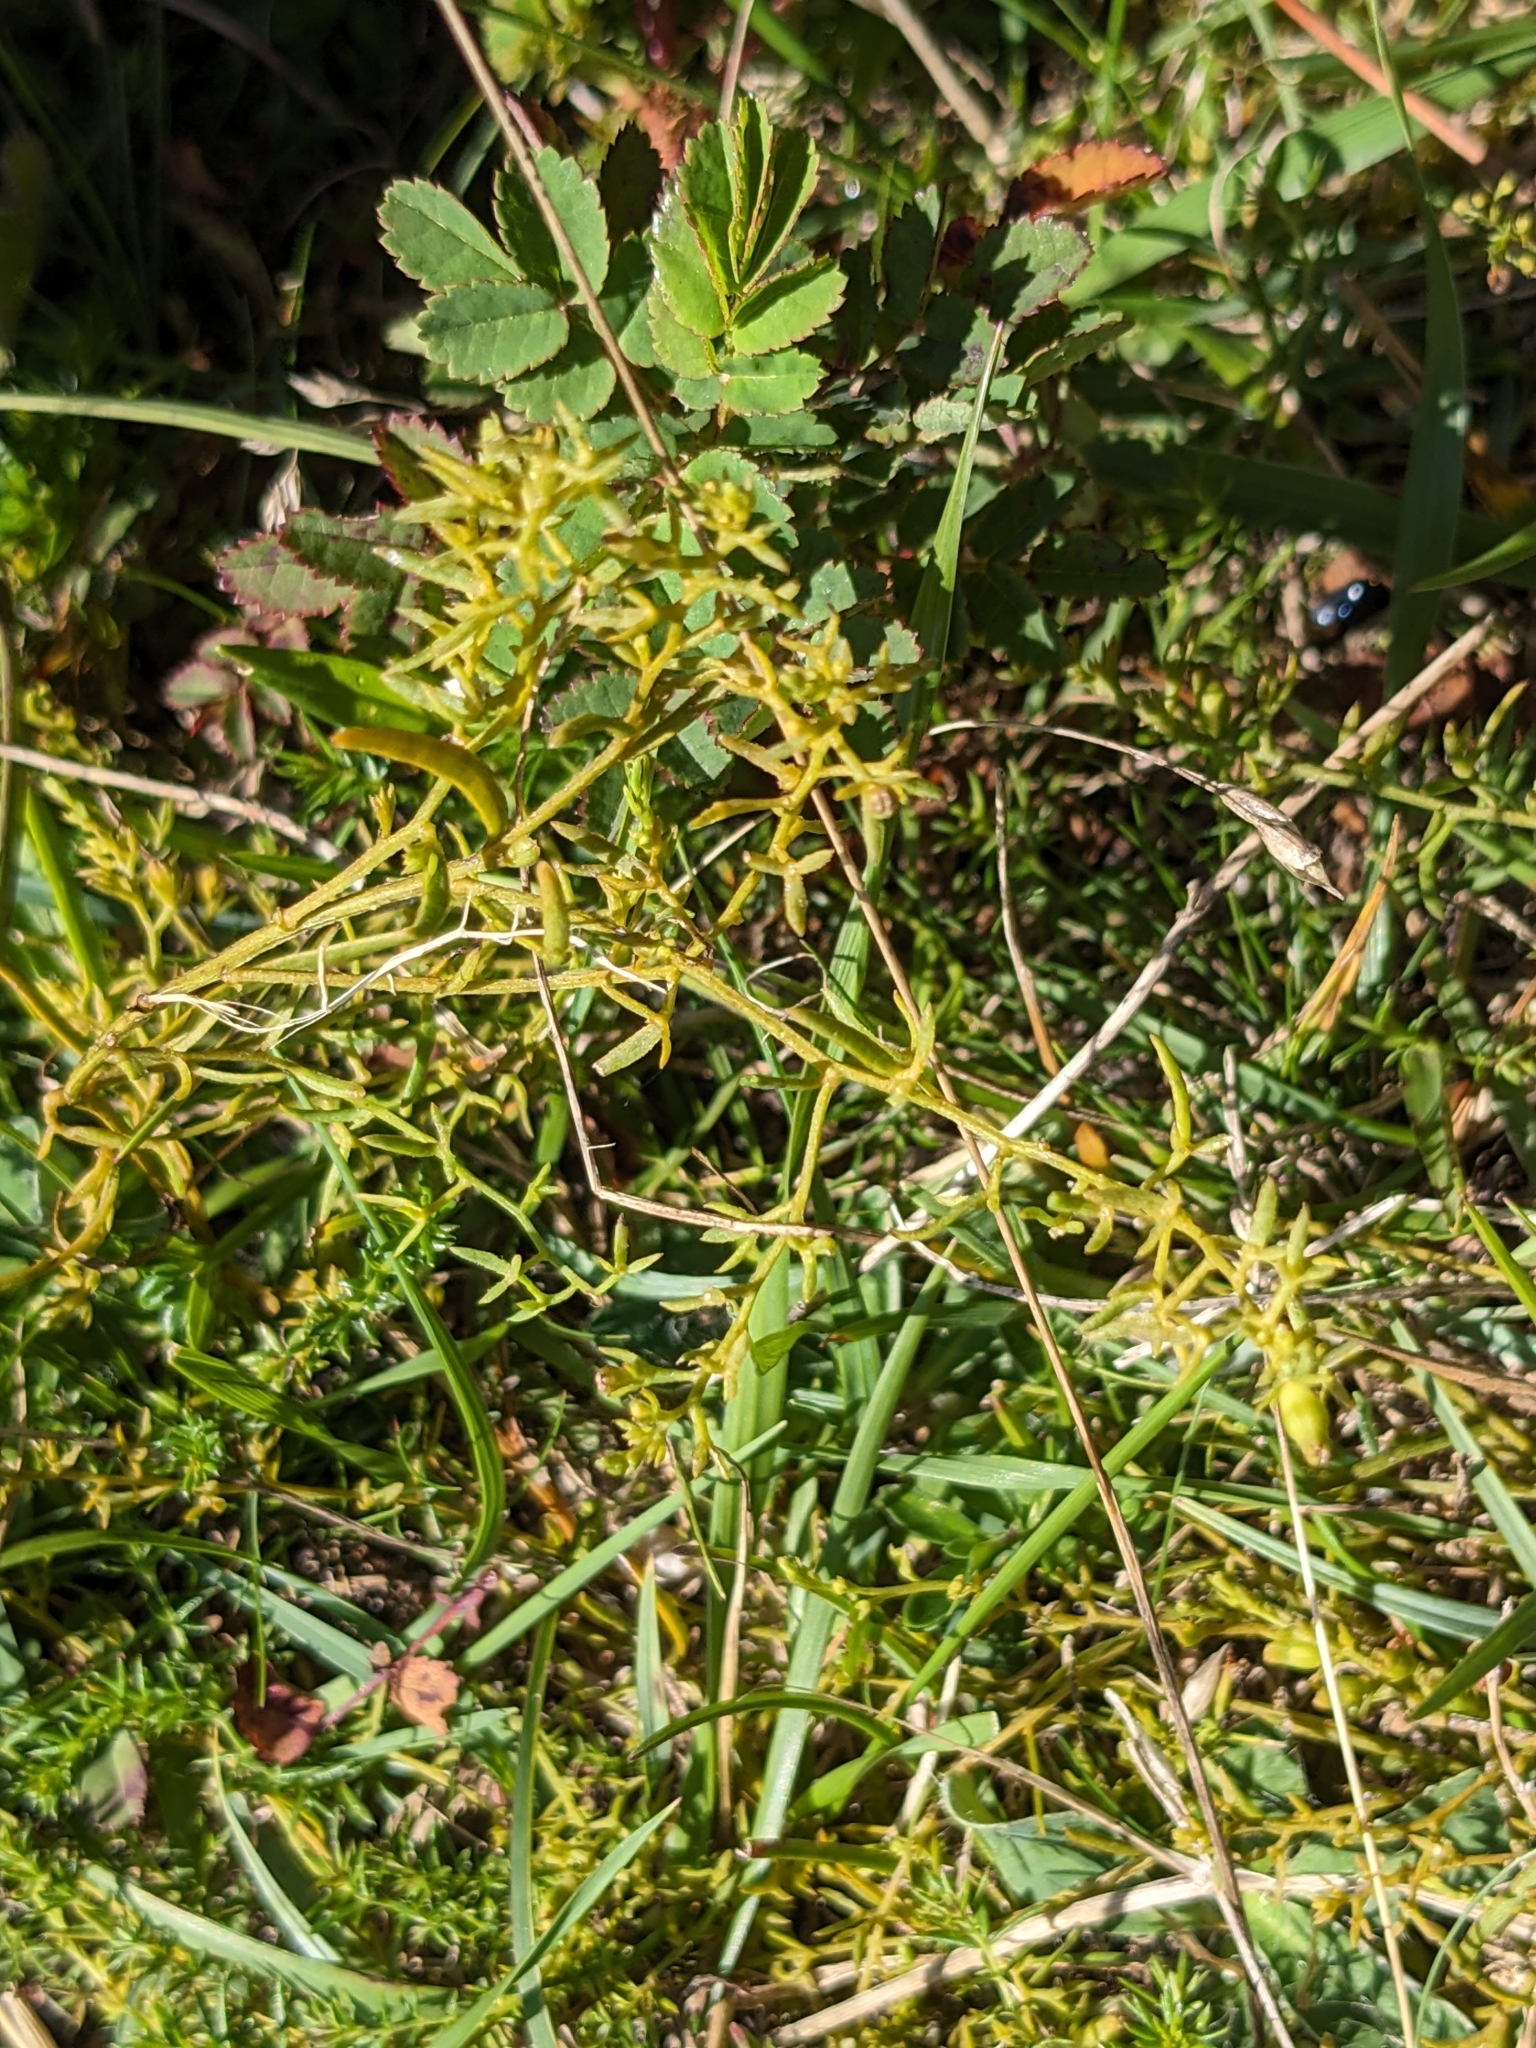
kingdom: Plantae
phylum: Tracheophyta
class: Magnoliopsida
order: Santalales
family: Thesiaceae
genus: Thesium
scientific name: Thesium humifusum
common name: Bastard-toadflax
